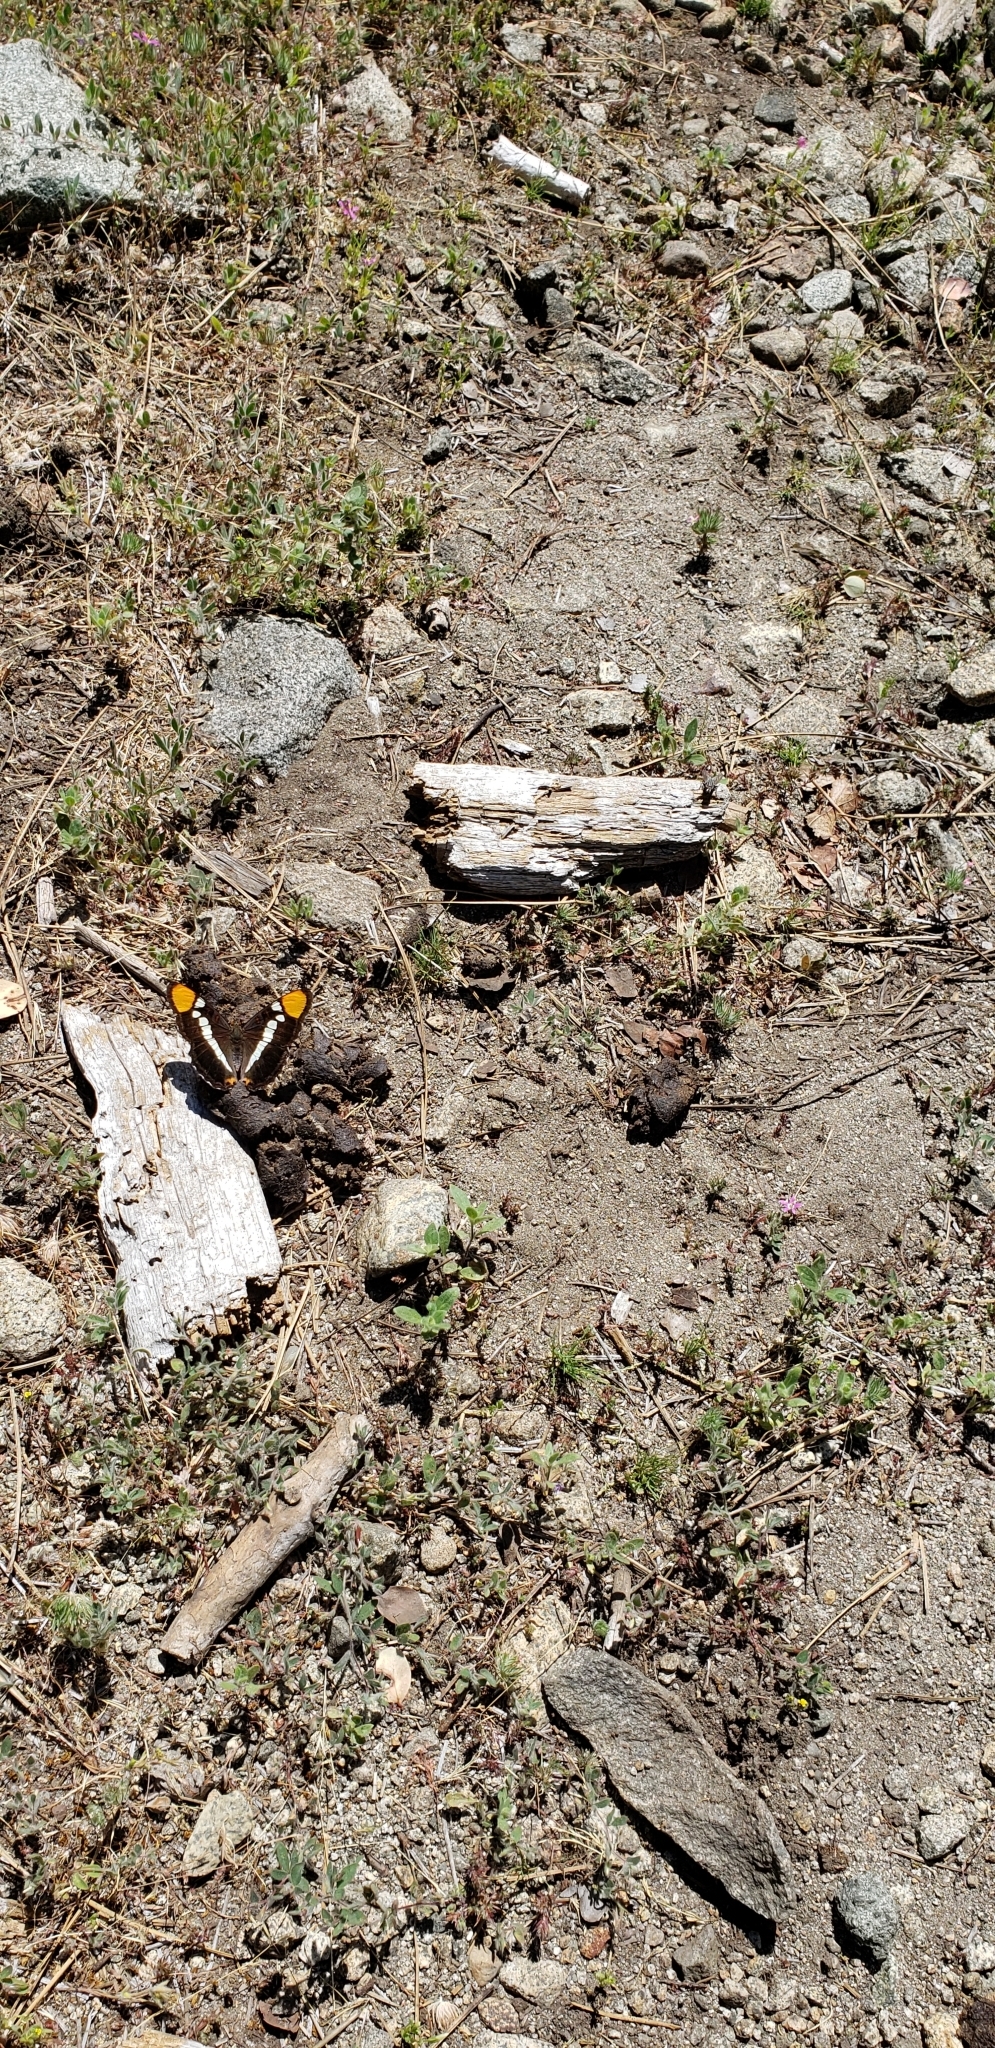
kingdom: Animalia
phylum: Arthropoda
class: Insecta
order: Lepidoptera
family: Nymphalidae
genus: Limenitis
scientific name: Limenitis bredowii
